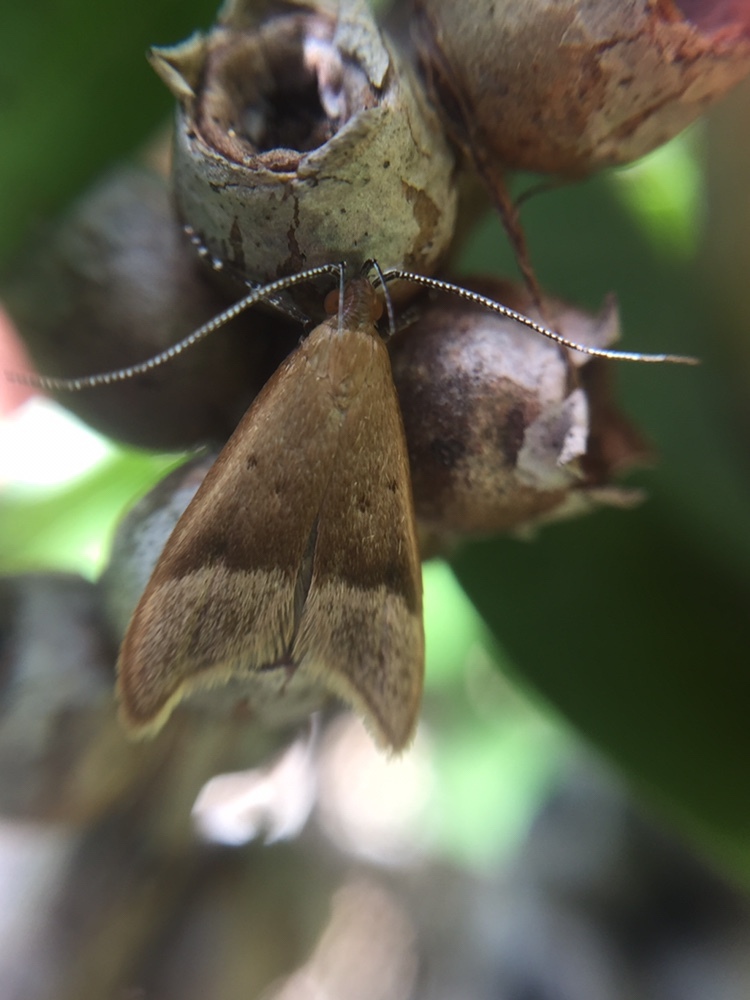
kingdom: Animalia
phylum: Arthropoda
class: Insecta
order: Lepidoptera
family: Oecophoridae
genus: Gymnobathra
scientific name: Gymnobathra hyetodes
